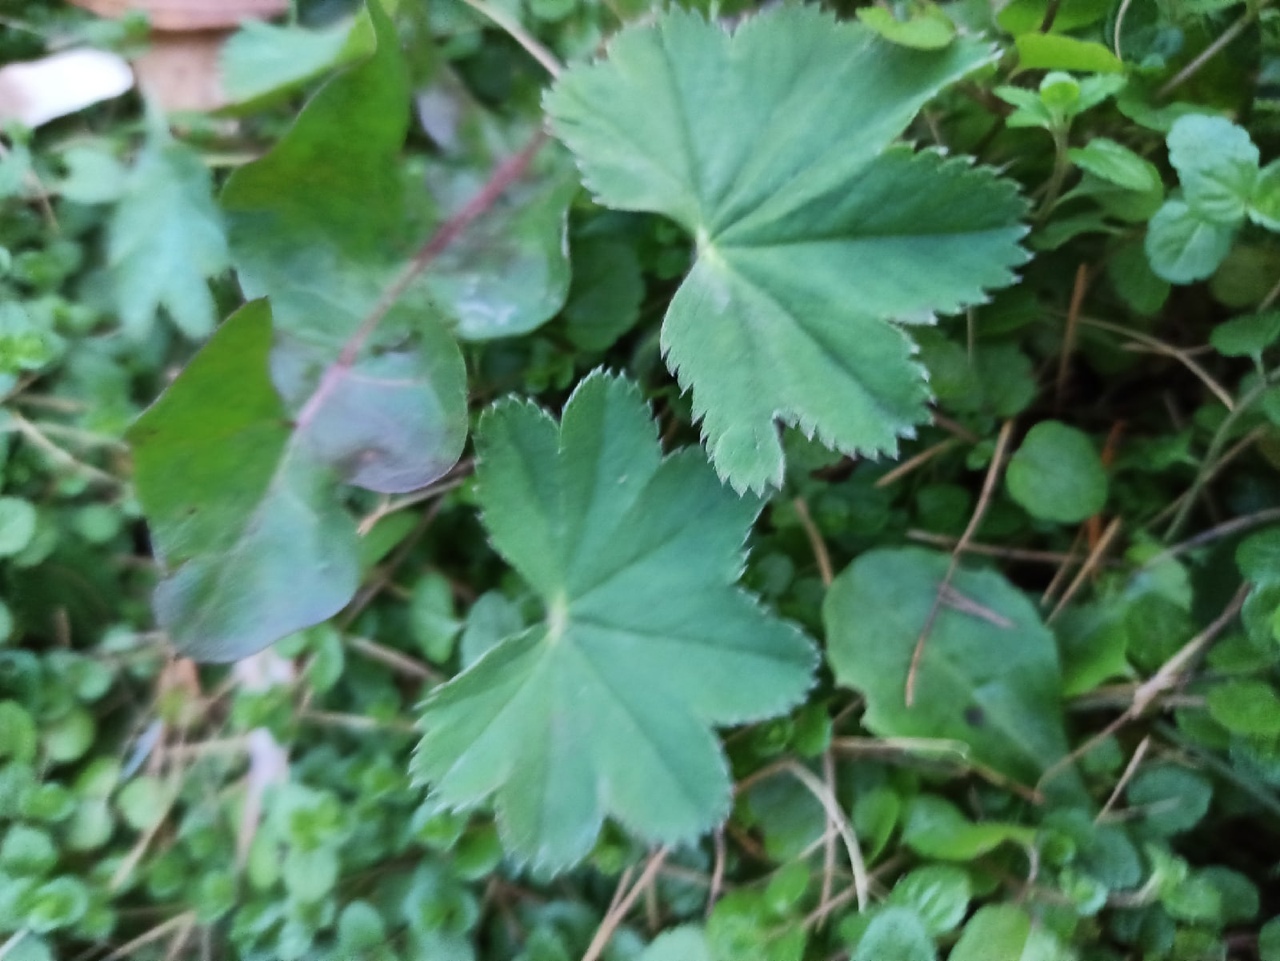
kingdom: Plantae
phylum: Tracheophyta
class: Magnoliopsida
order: Rosales
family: Rosaceae
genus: Alchemilla
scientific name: Alchemilla
